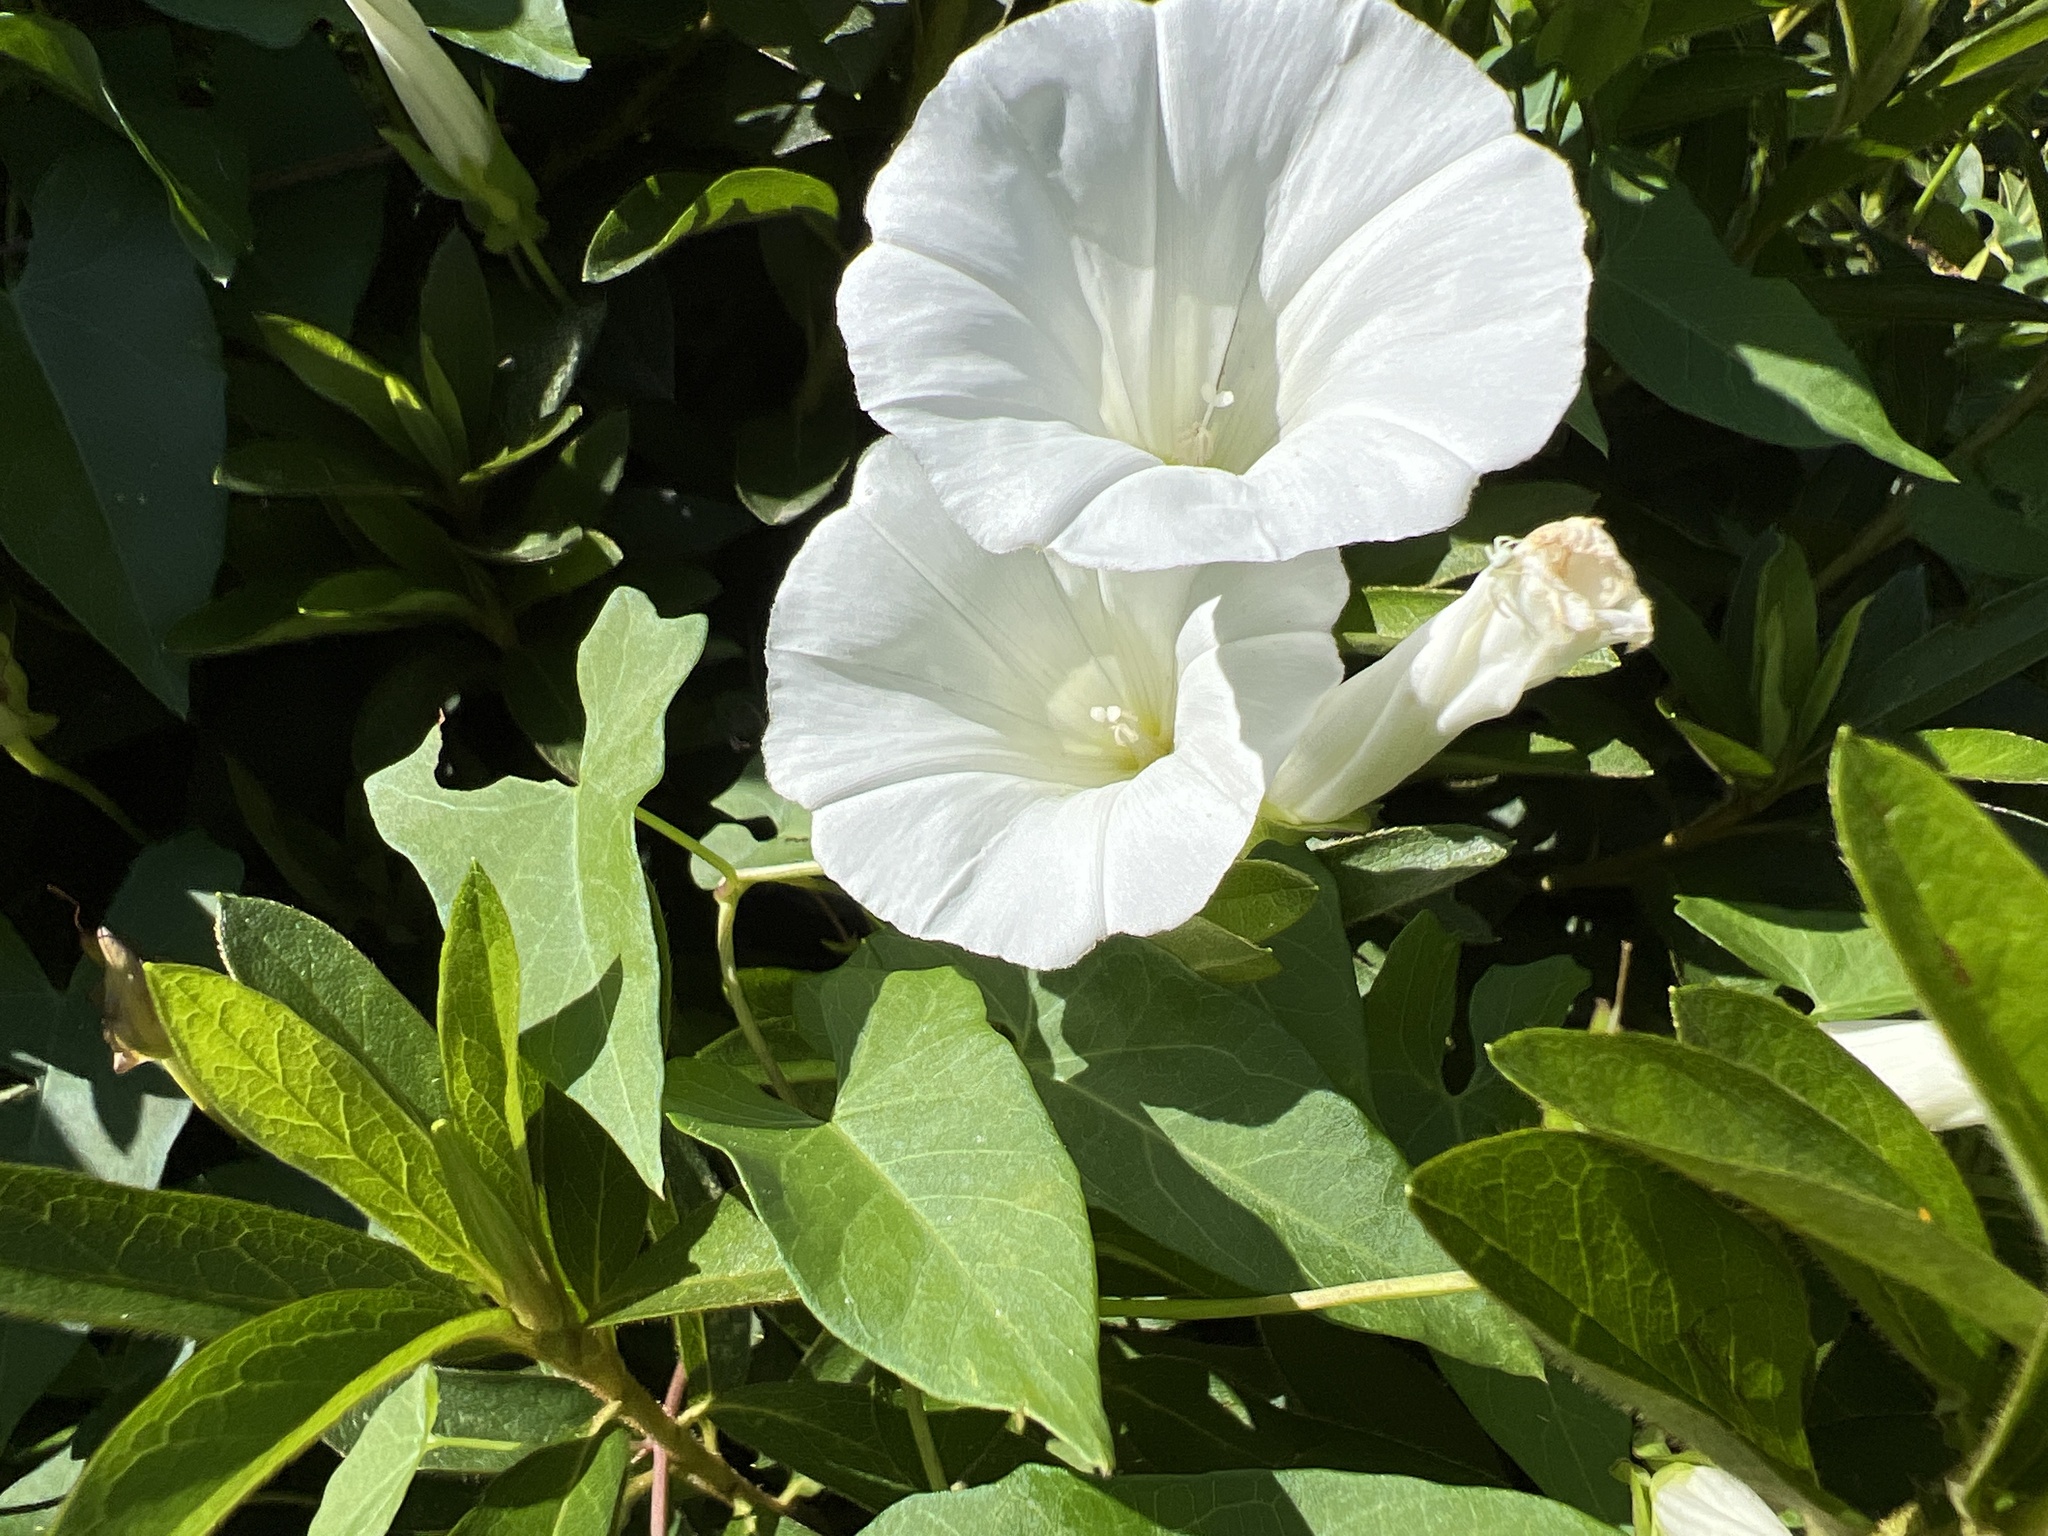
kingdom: Plantae
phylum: Tracheophyta
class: Magnoliopsida
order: Solanales
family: Convolvulaceae
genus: Calystegia
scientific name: Calystegia sepium
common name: Hedge bindweed
